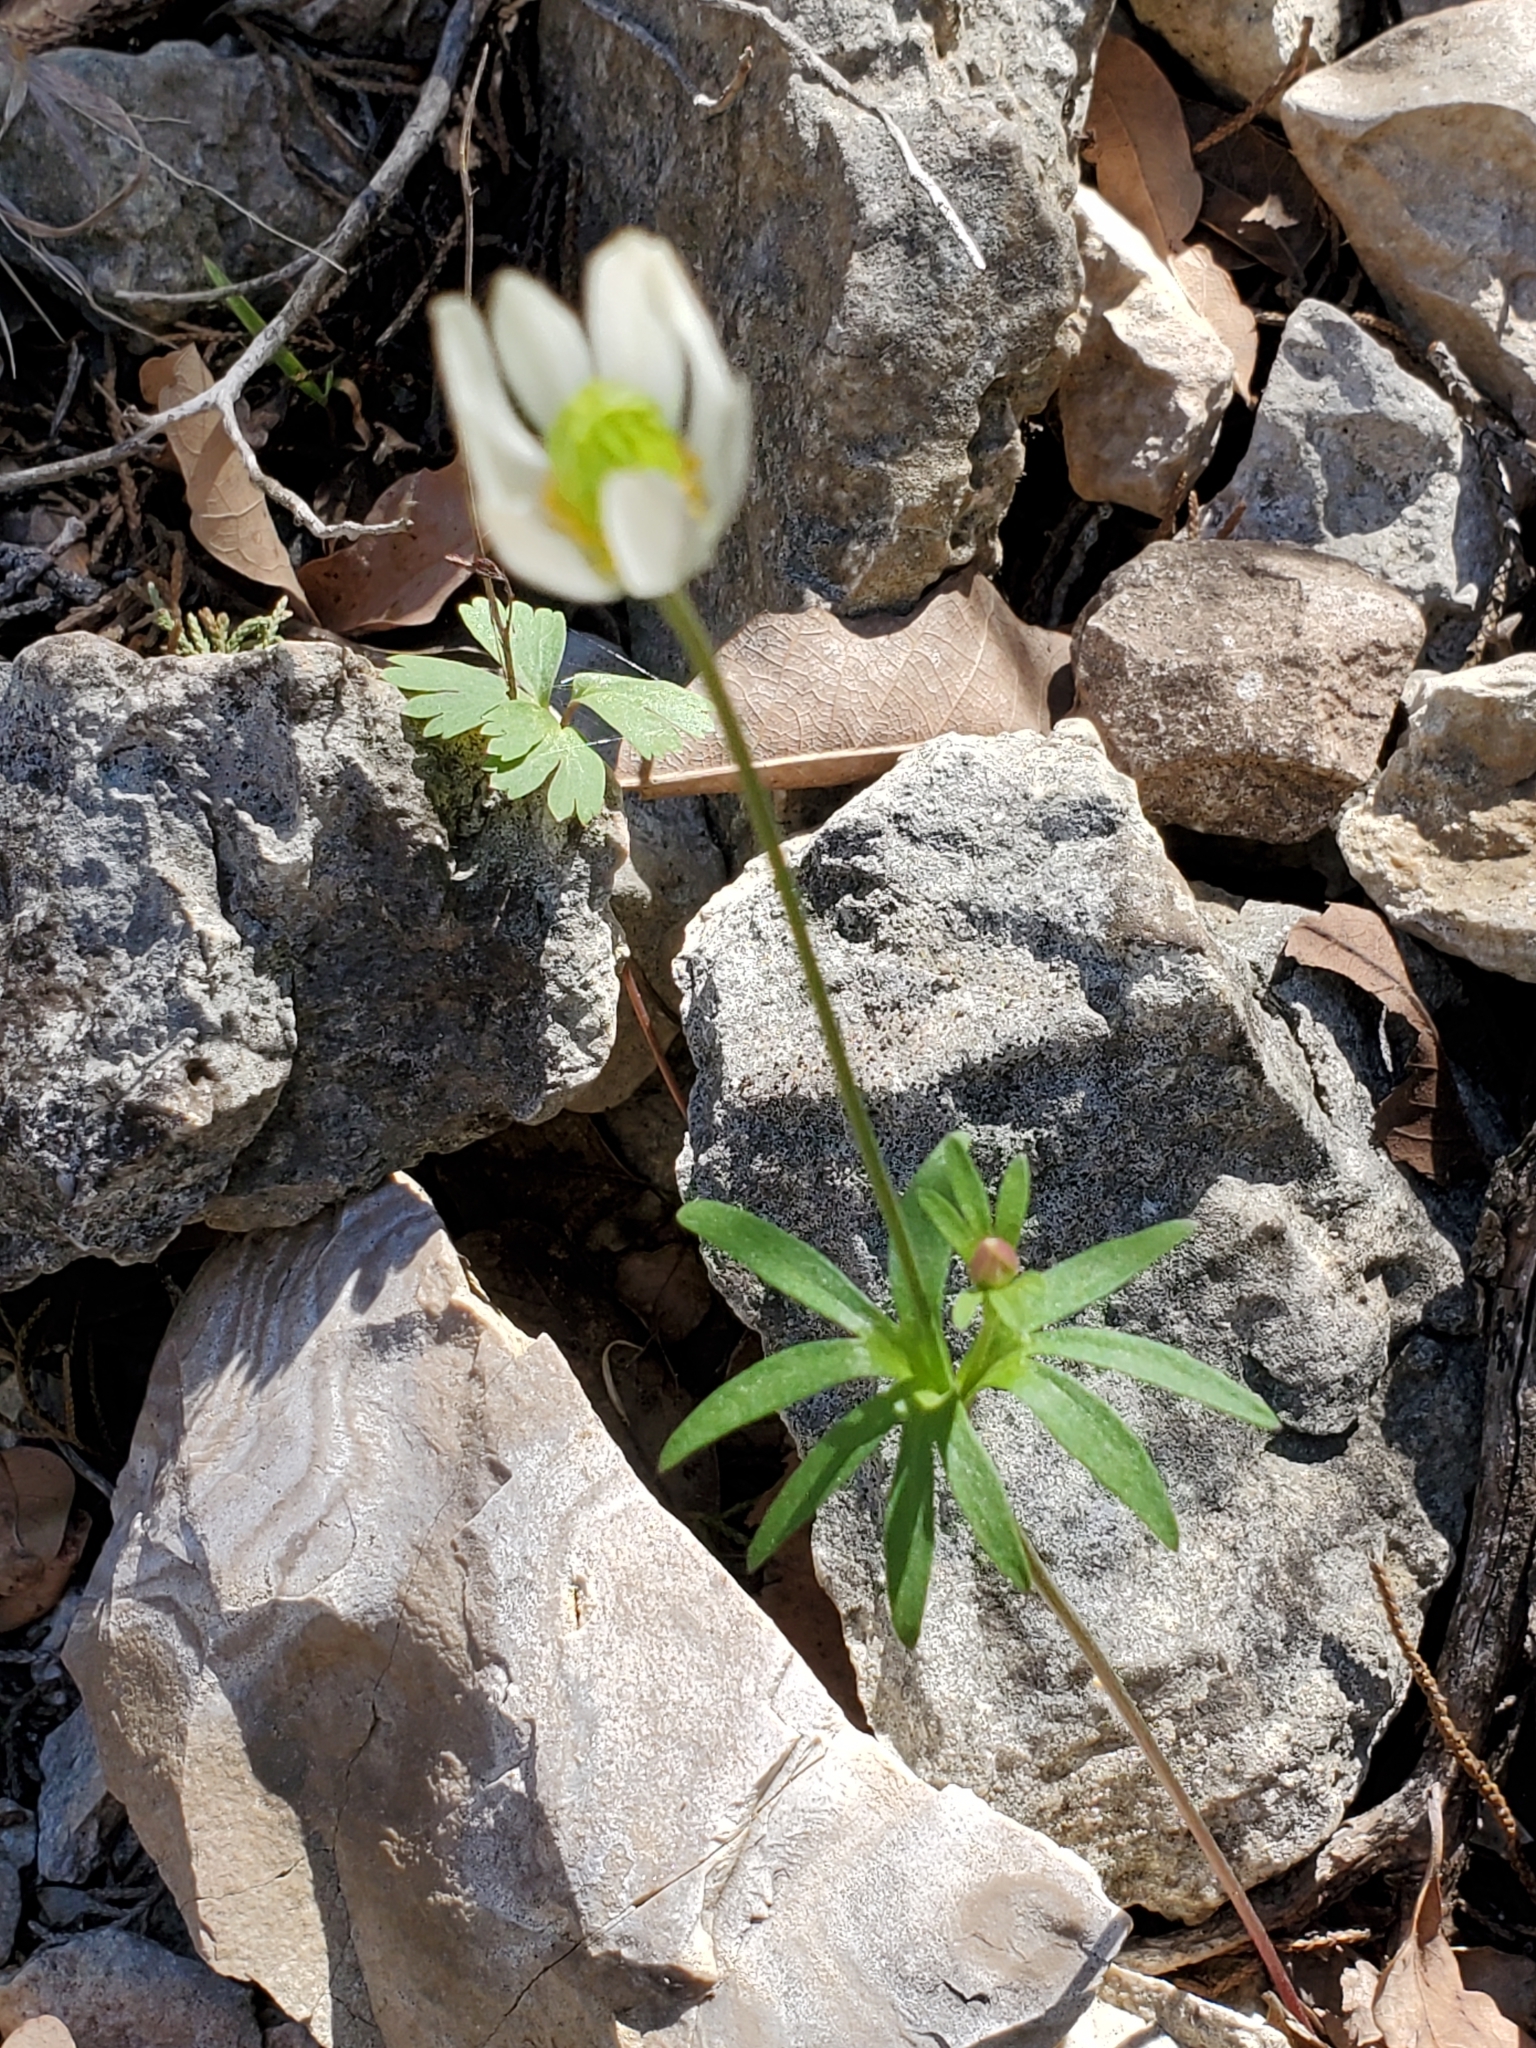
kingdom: Plantae
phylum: Tracheophyta
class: Magnoliopsida
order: Ranunculales
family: Ranunculaceae
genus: Anemone
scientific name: Anemone edwardsiana
